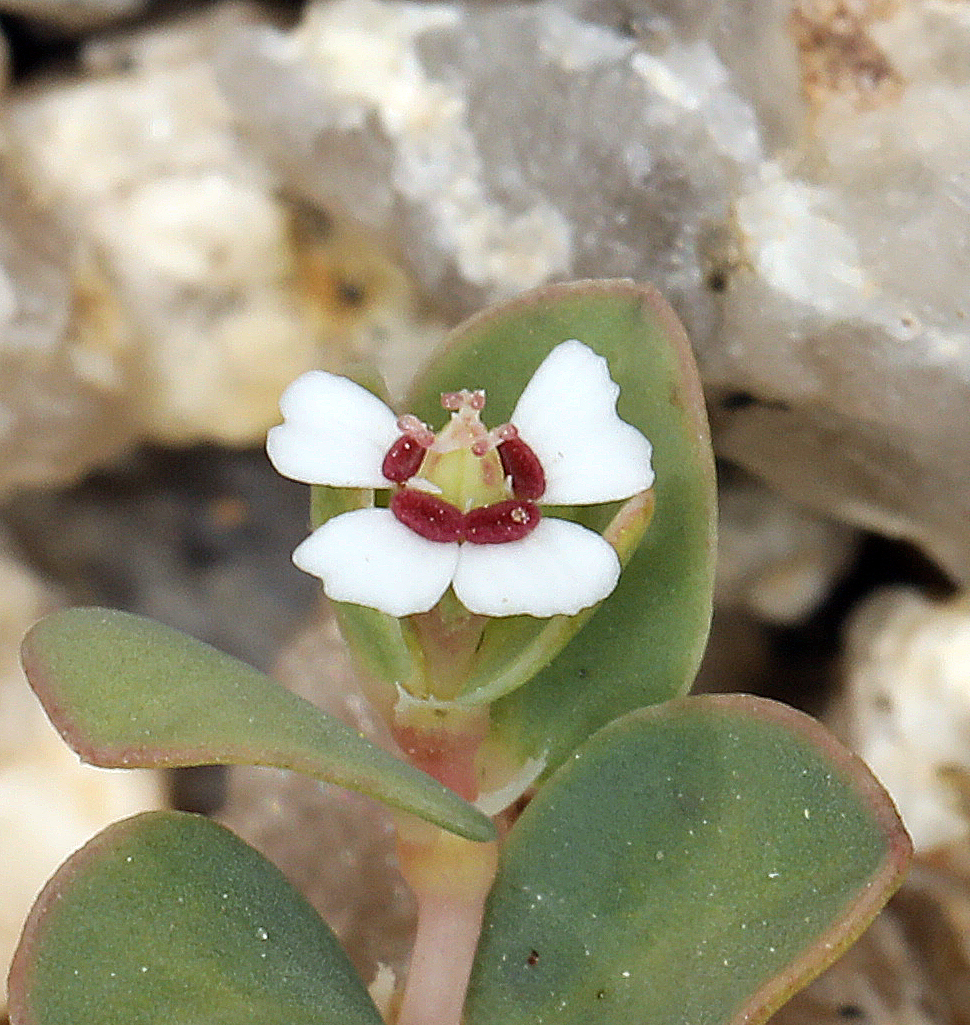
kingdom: Plantae
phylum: Tracheophyta
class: Magnoliopsida
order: Malpighiales
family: Euphorbiaceae
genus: Euphorbia
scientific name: Euphorbia albomarginata
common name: Whitemargin sandmat
